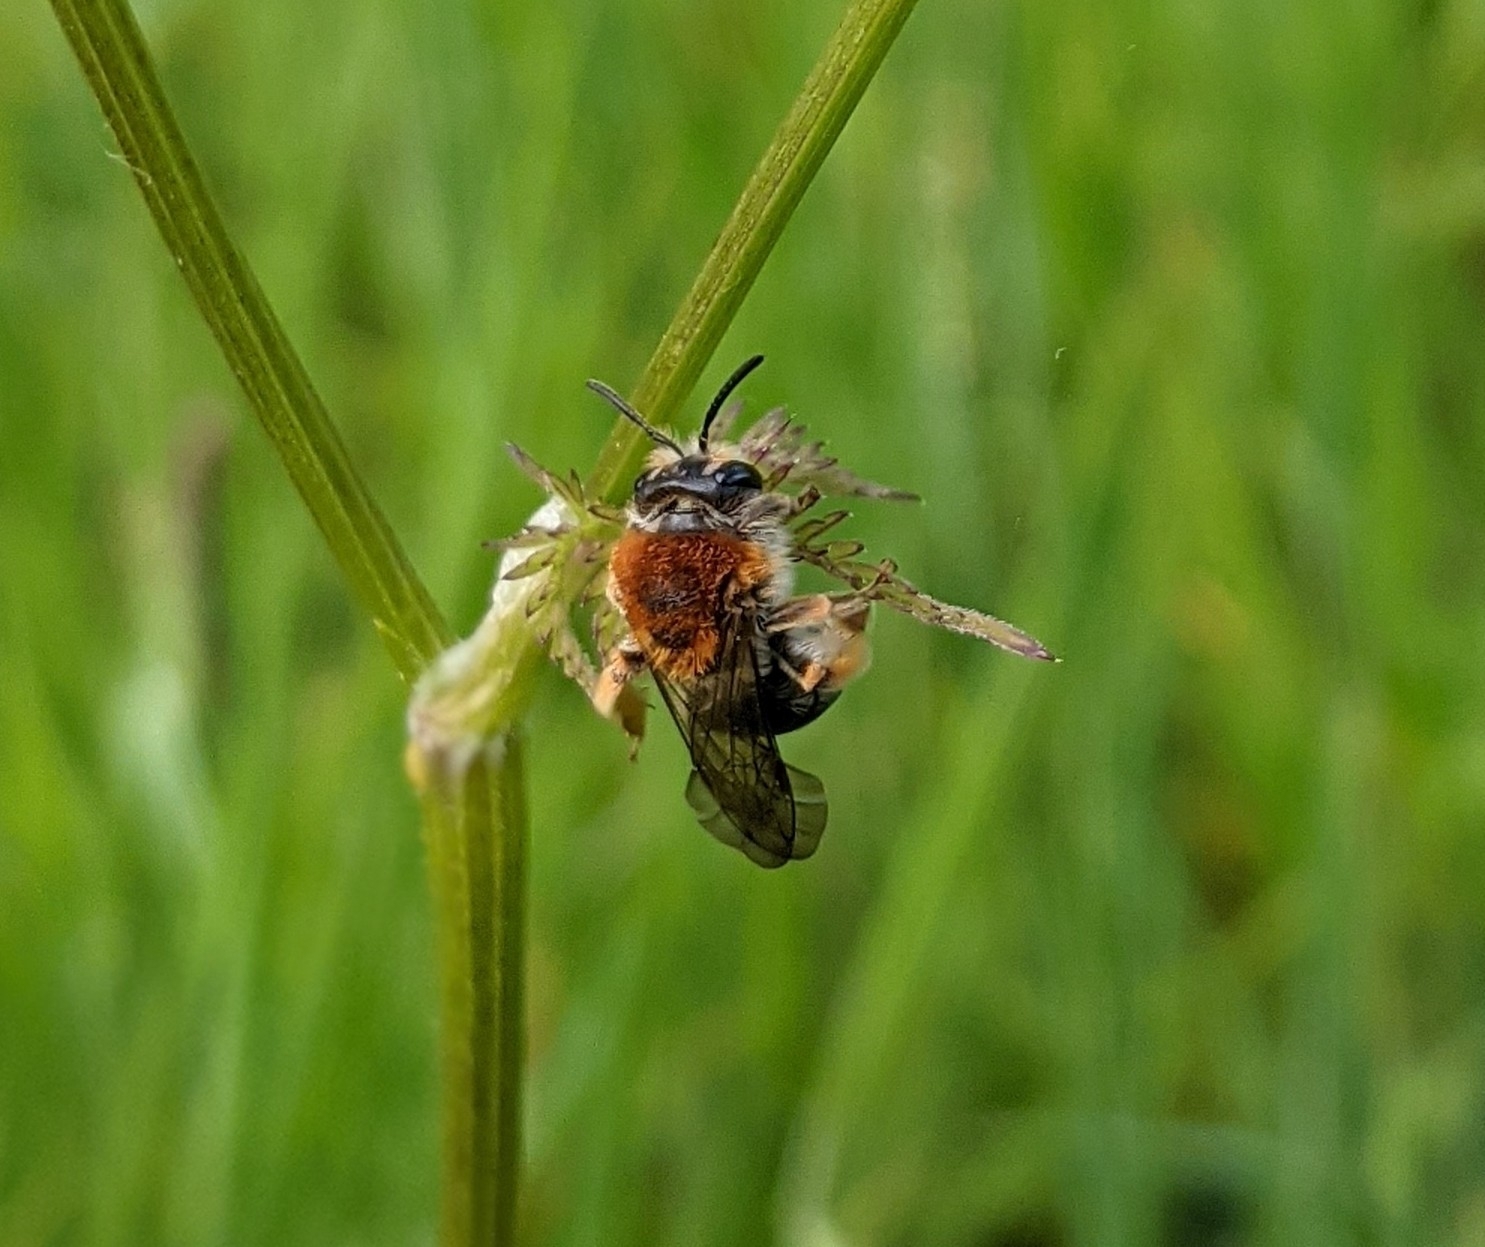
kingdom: Animalia
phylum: Arthropoda
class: Insecta
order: Hymenoptera
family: Andrenidae
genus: Andrena
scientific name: Andrena haemorrhoa
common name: Early mining bee
